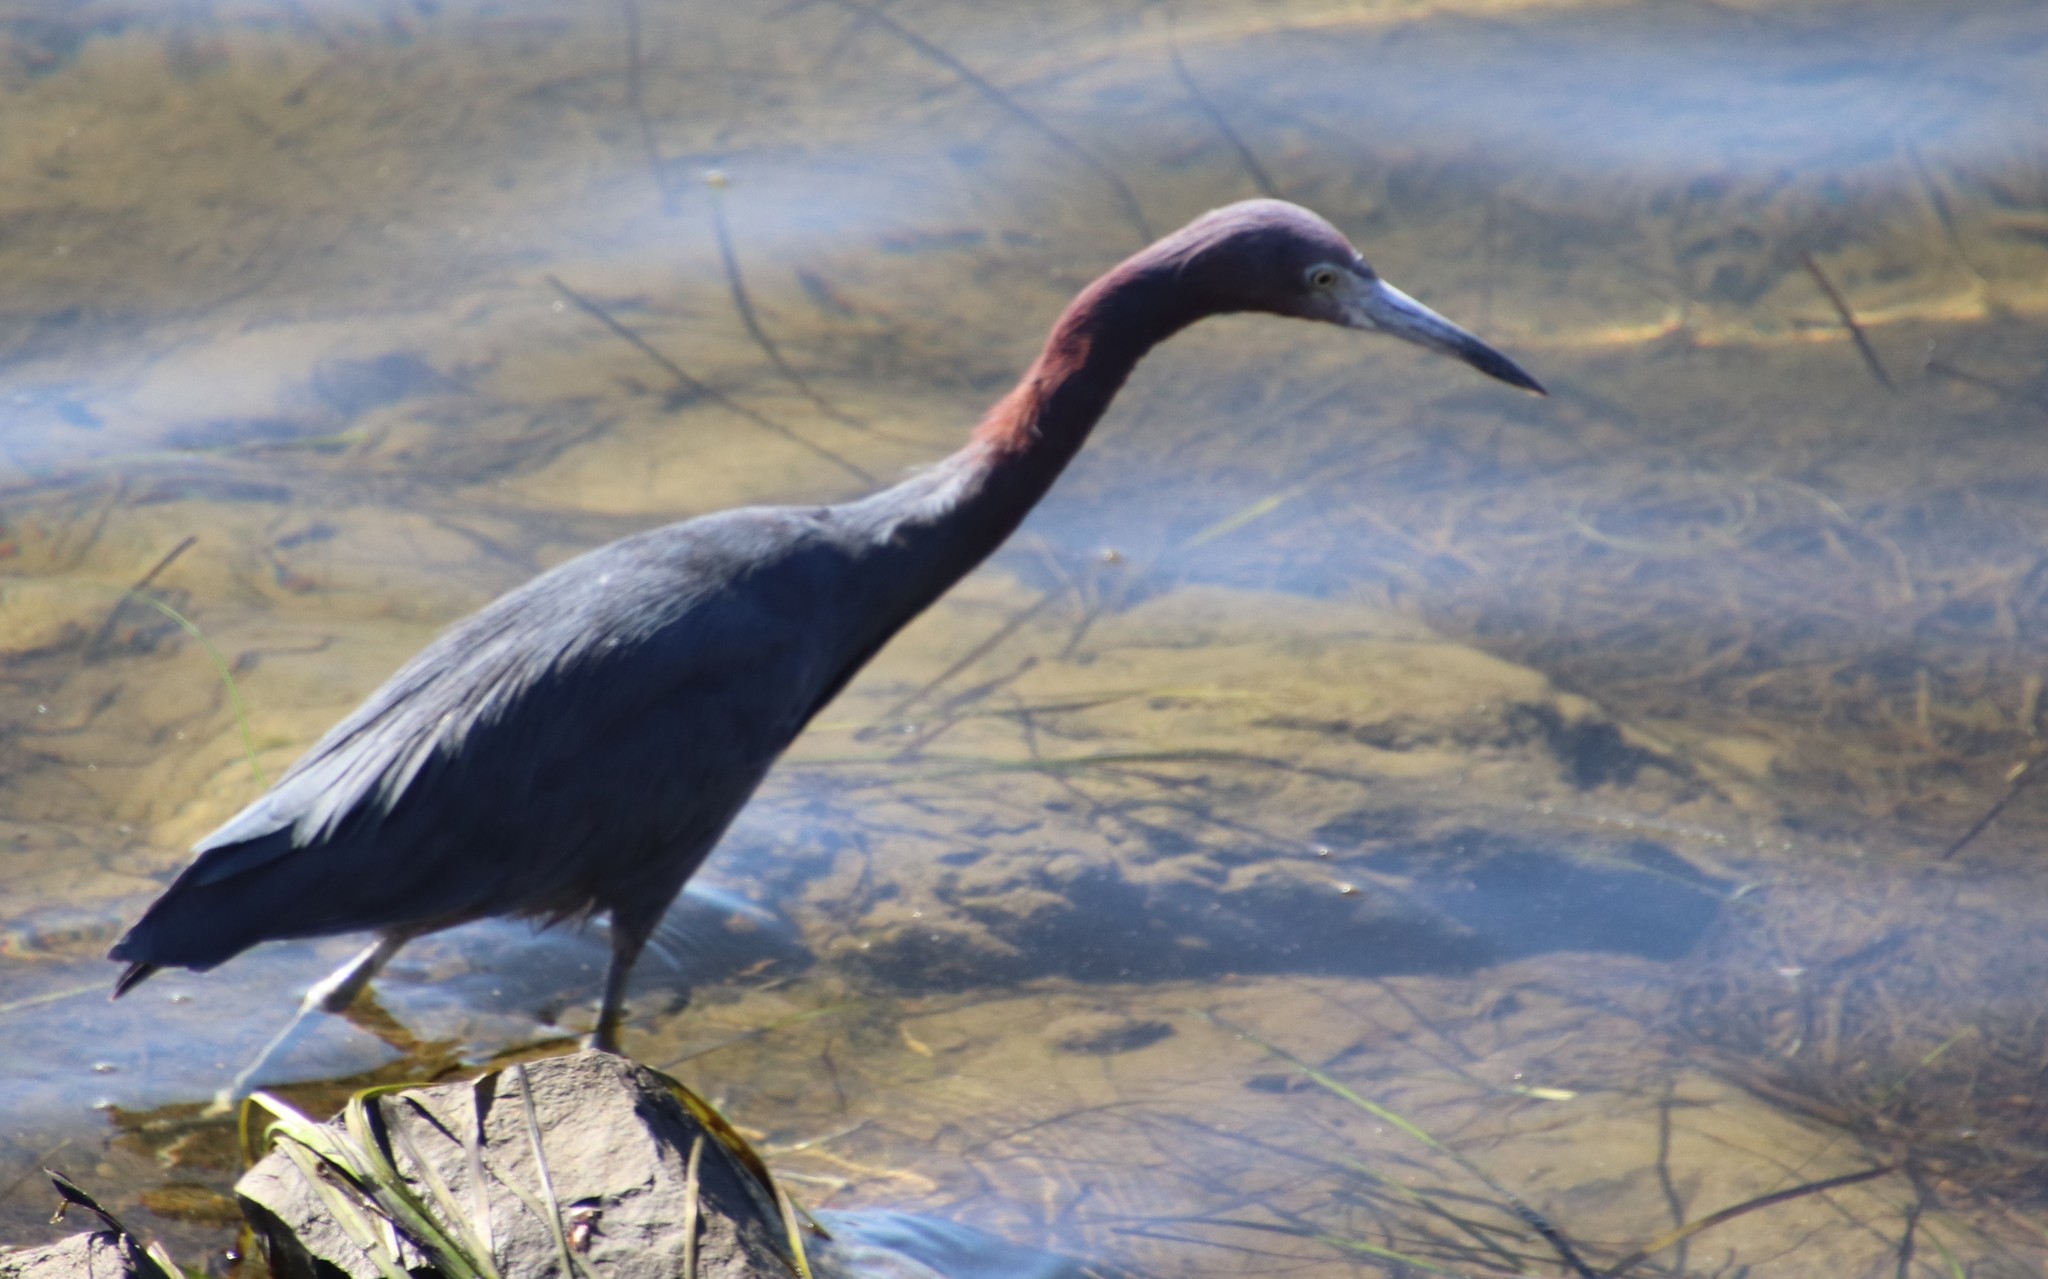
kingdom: Animalia
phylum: Chordata
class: Aves
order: Pelecaniformes
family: Ardeidae
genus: Egretta
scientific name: Egretta caerulea
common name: Little blue heron
